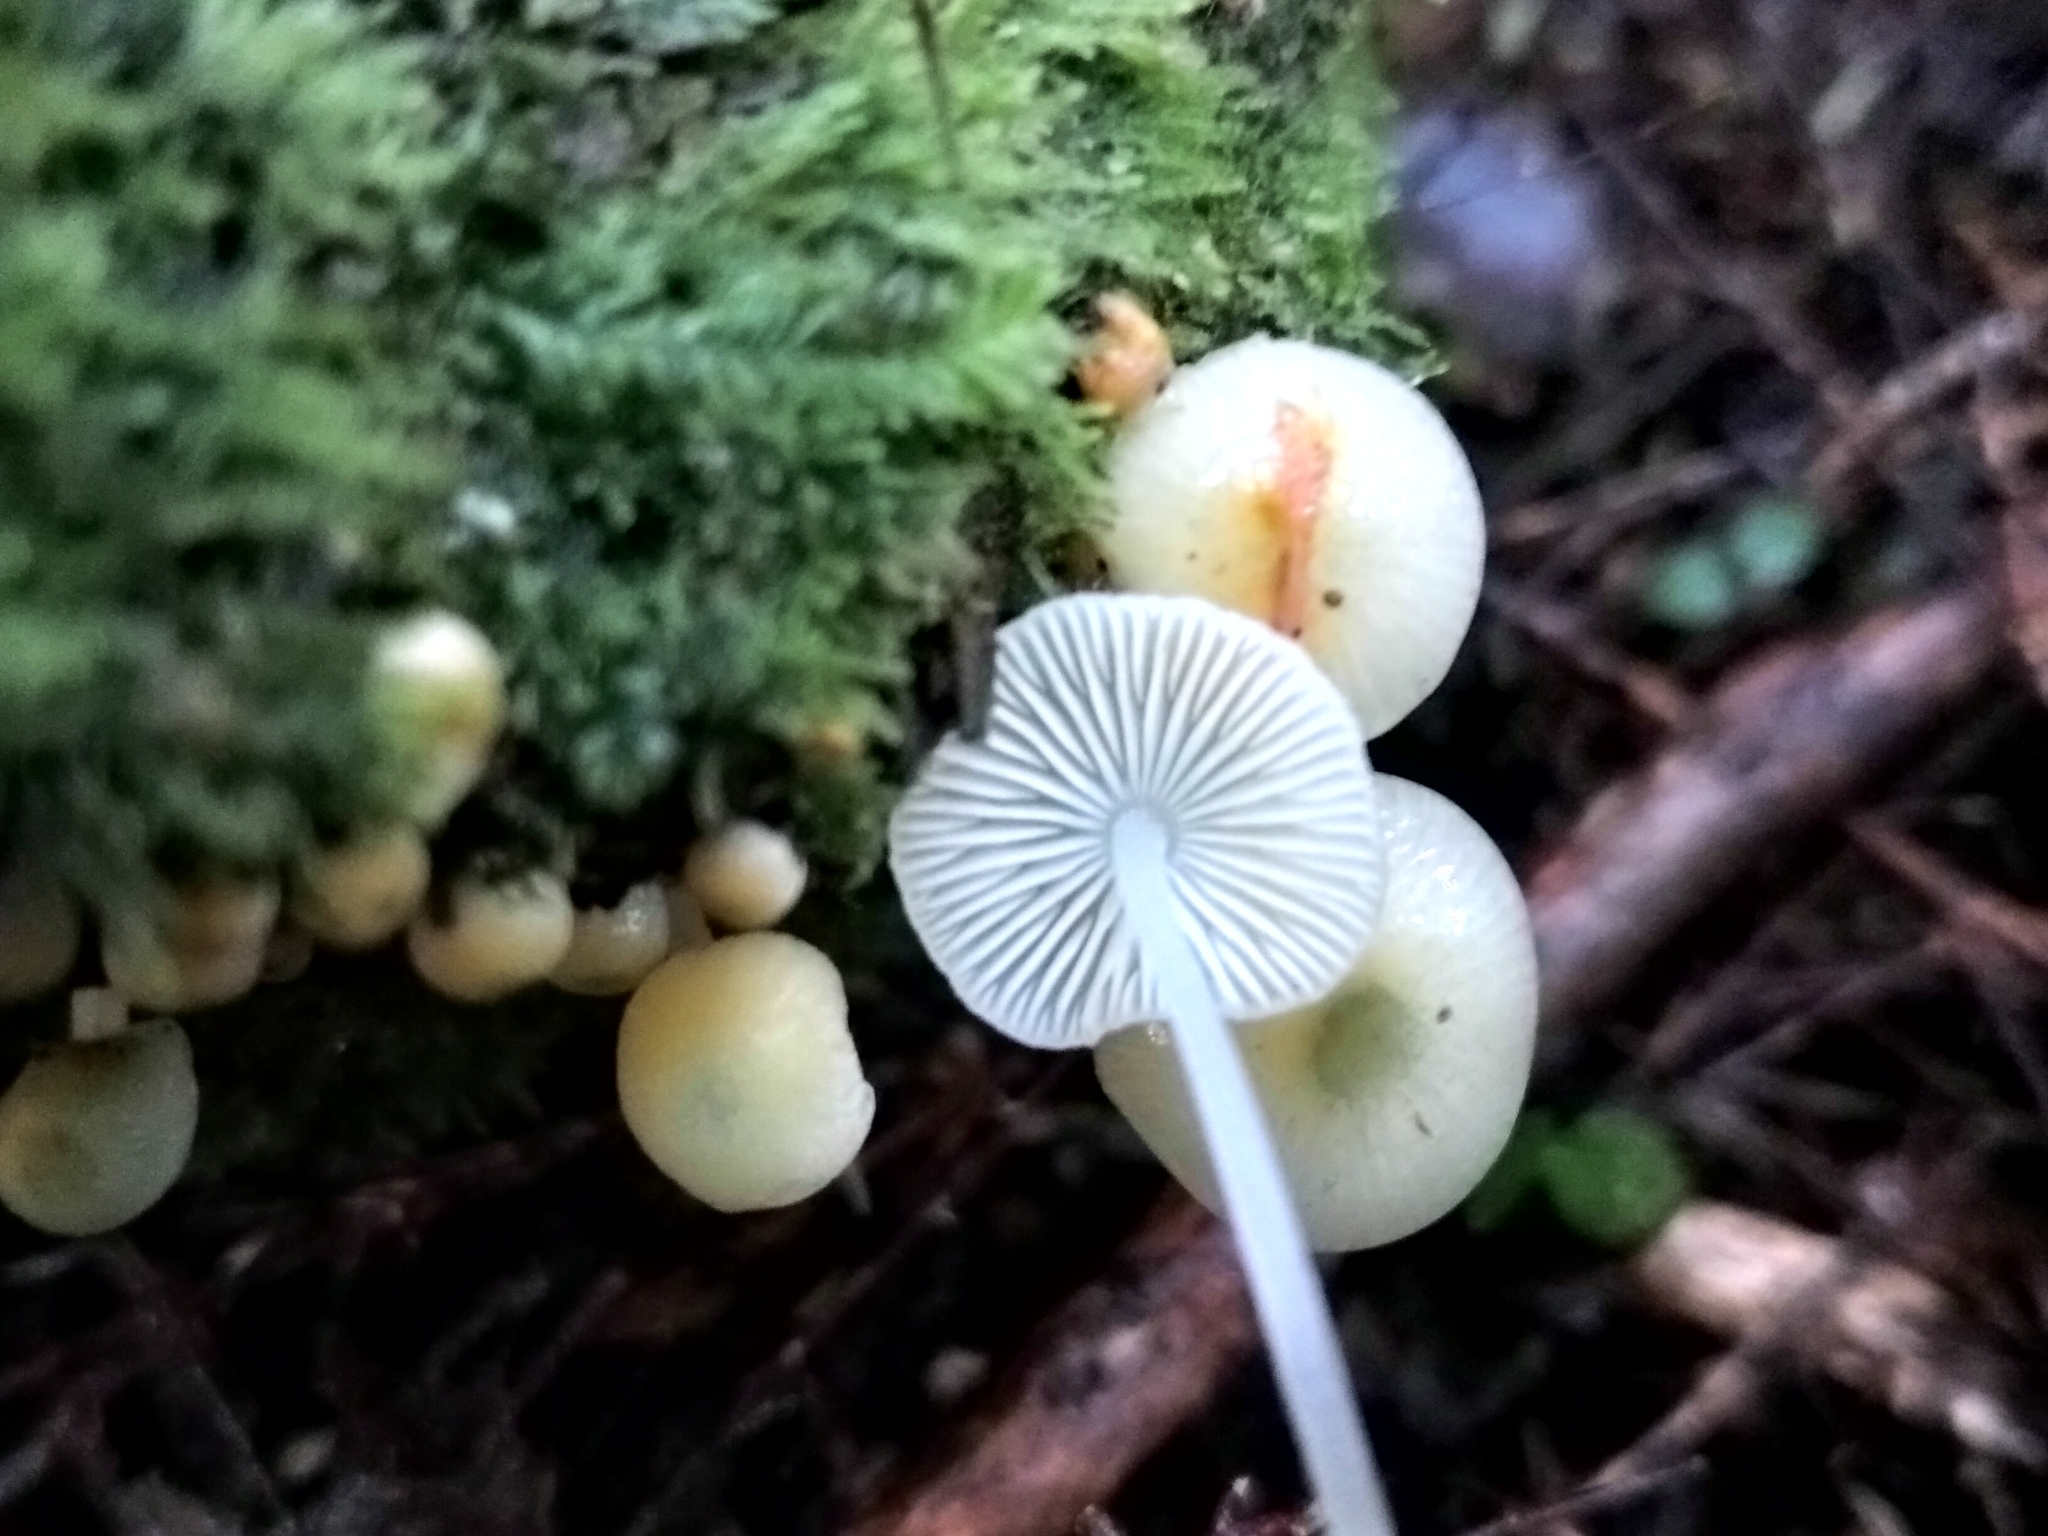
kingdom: Fungi
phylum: Basidiomycota
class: Agaricomycetes
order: Agaricales
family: Mycenaceae
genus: Mycena
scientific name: Mycena interrupta
